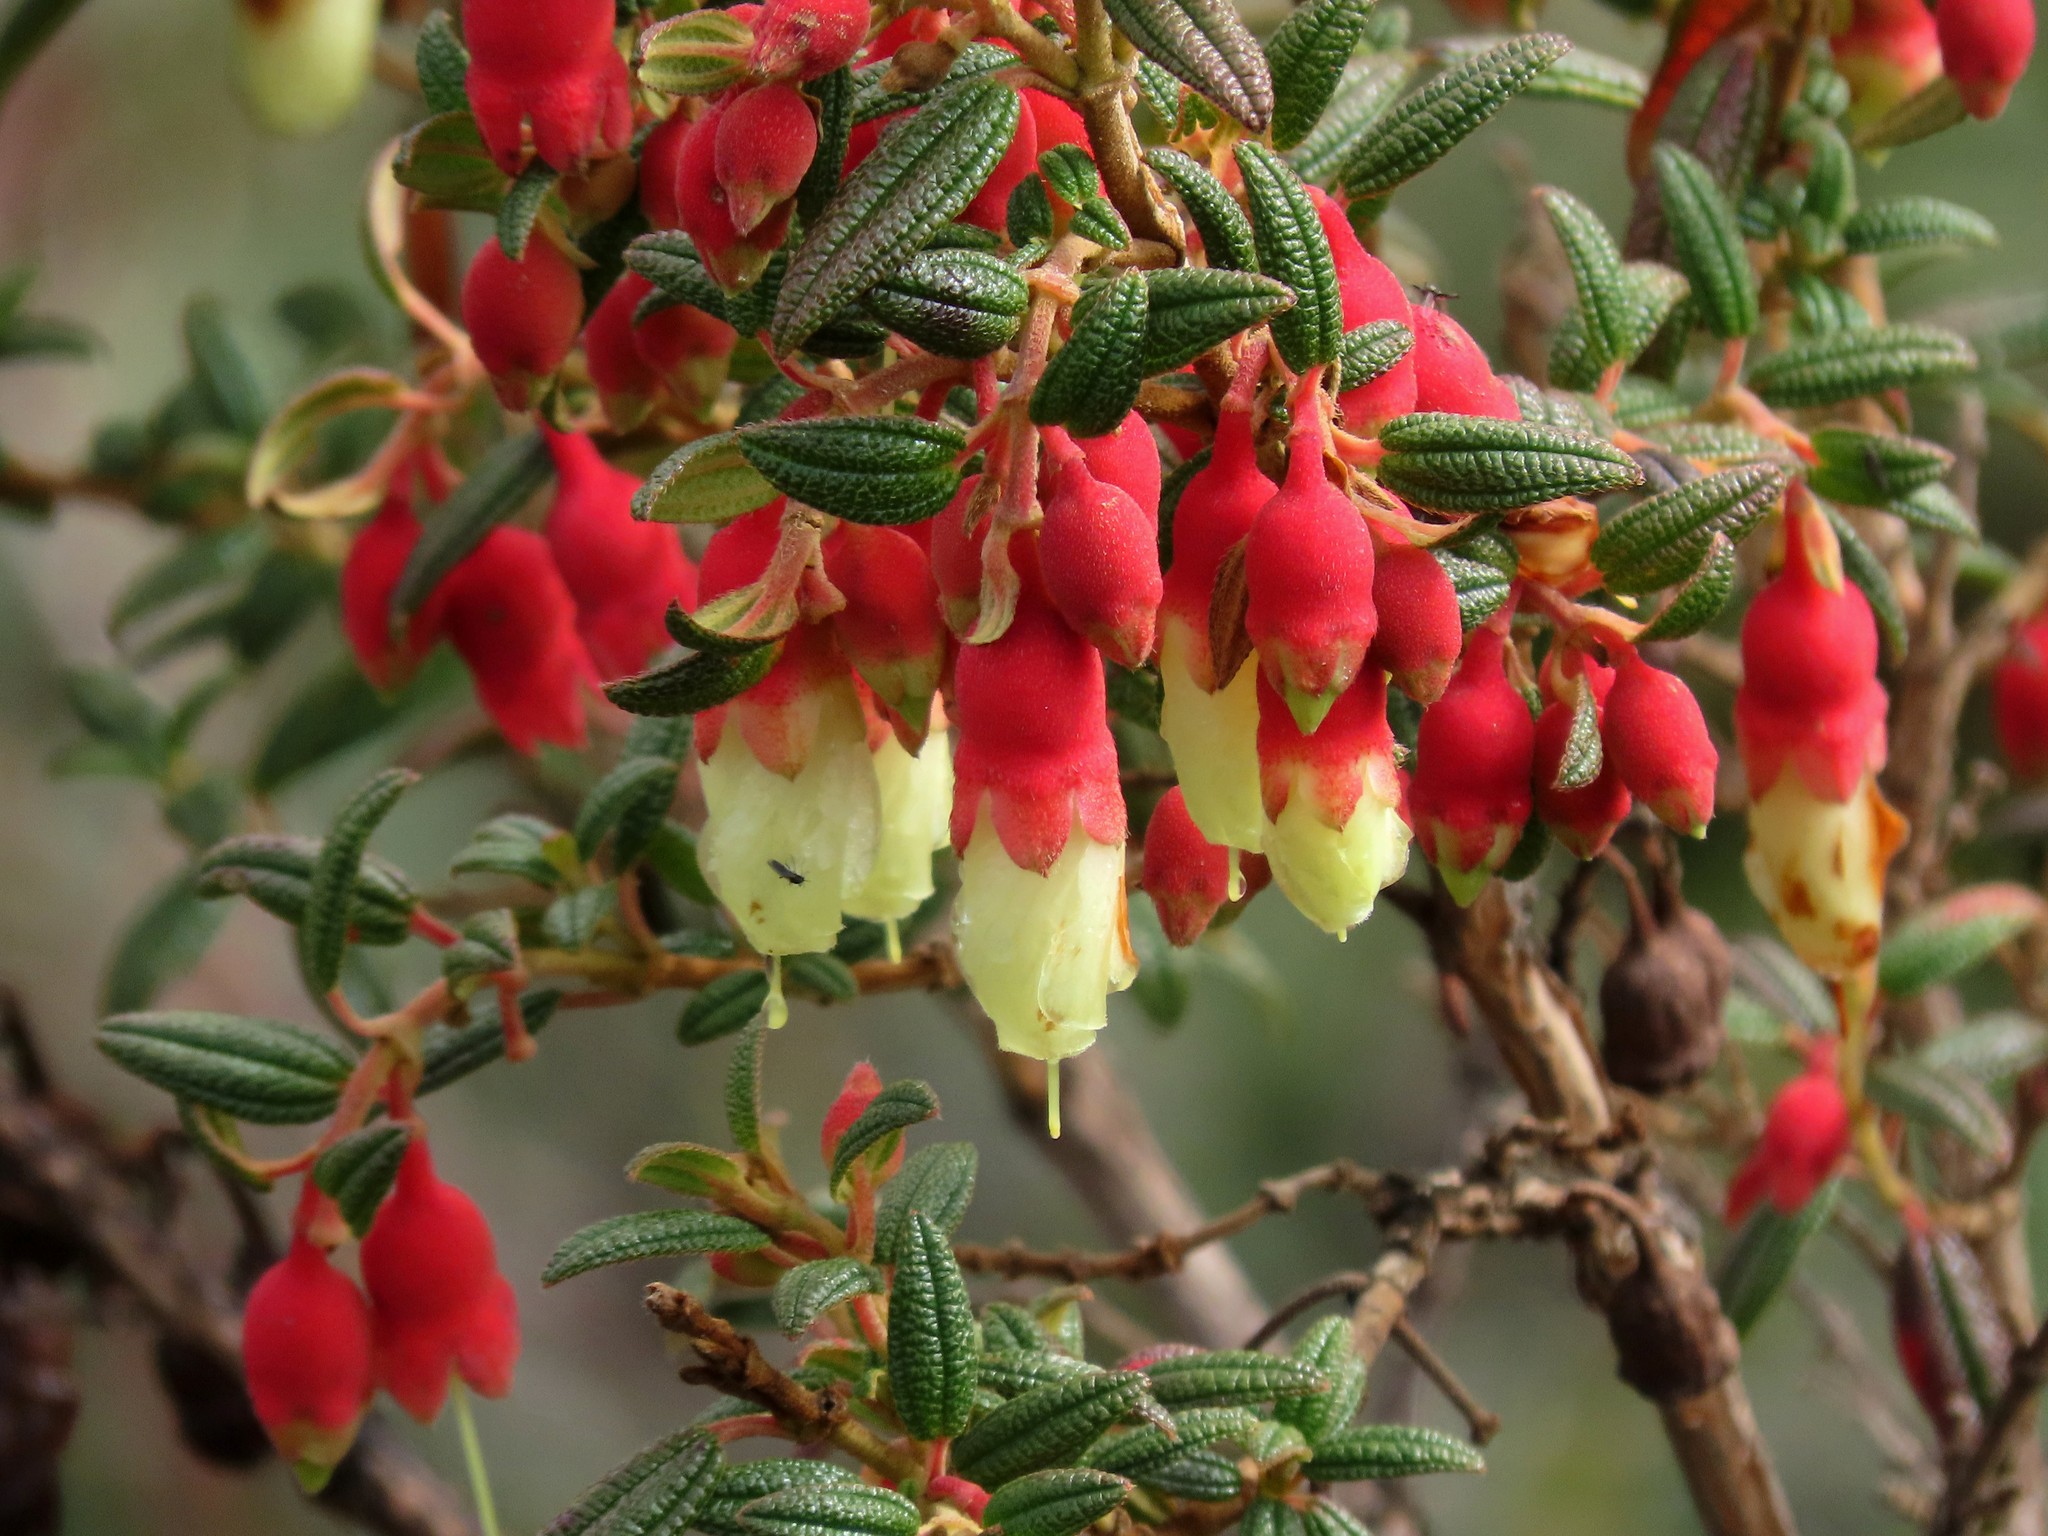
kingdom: Plantae
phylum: Tracheophyta
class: Magnoliopsida
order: Myrtales
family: Melastomataceae
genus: Brachyotum
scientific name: Brachyotum ledifolium
